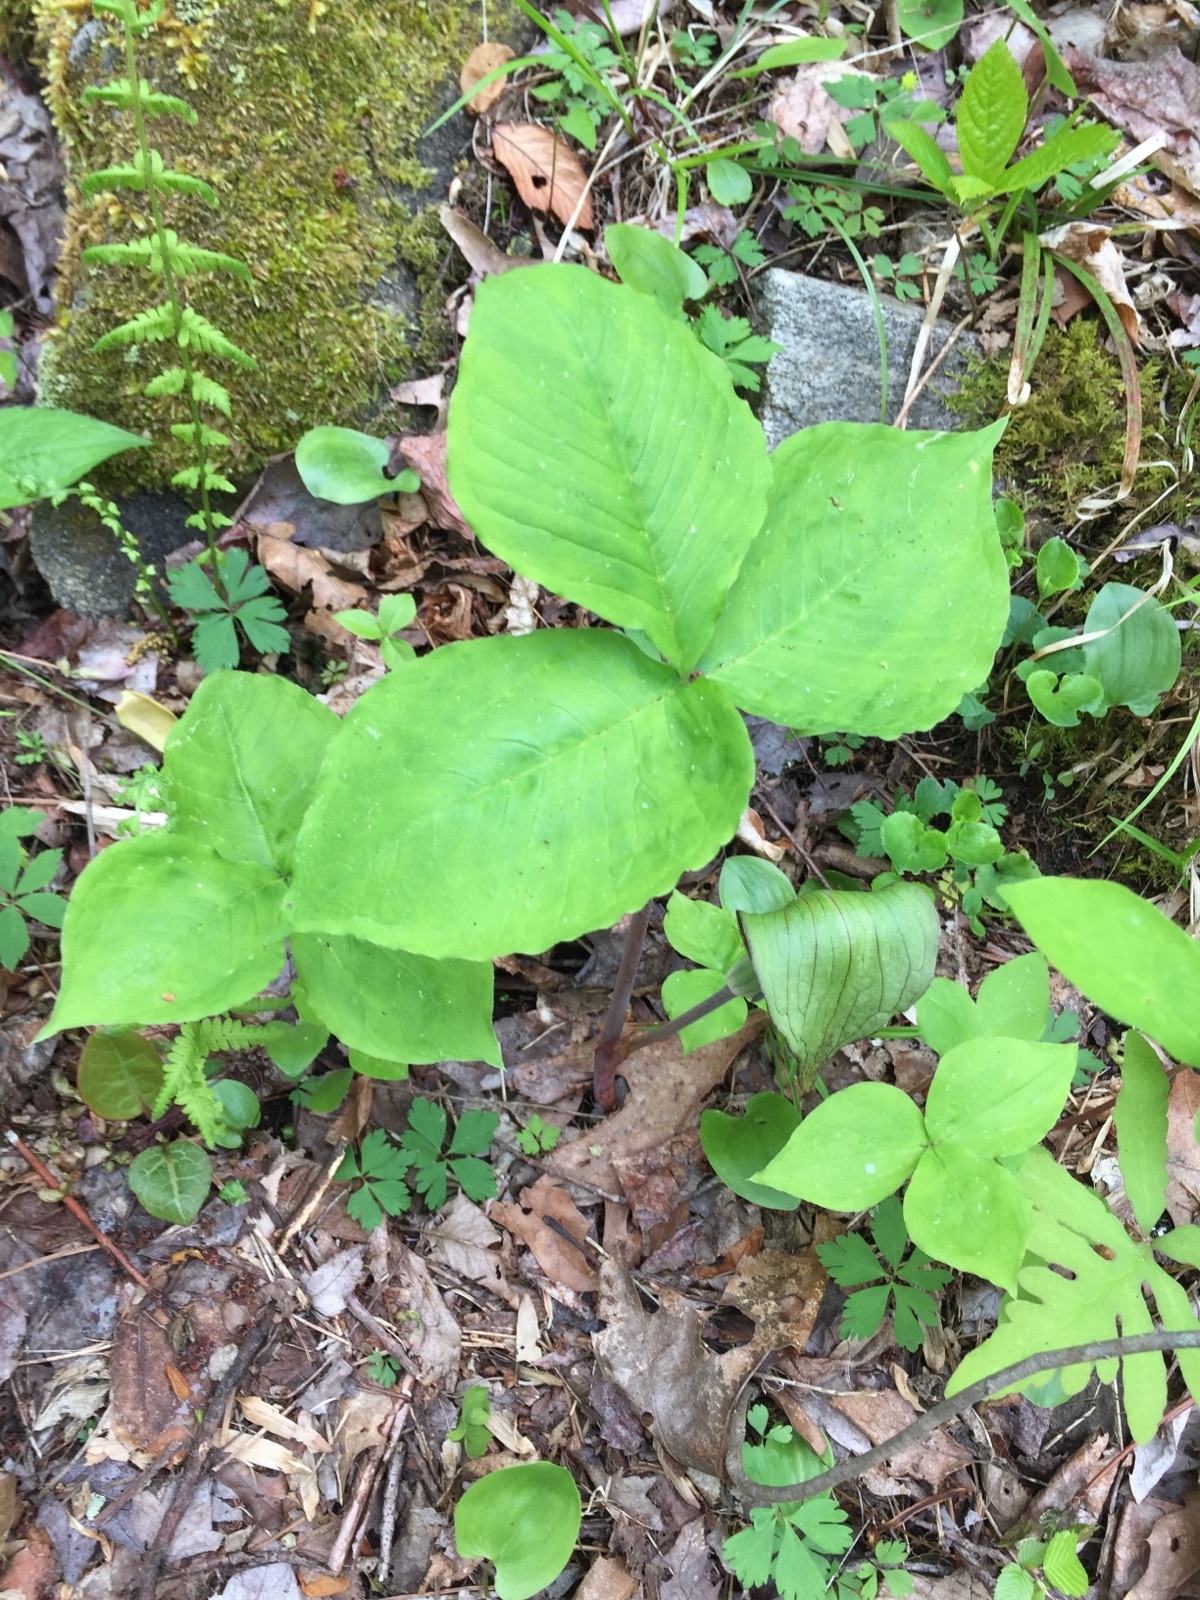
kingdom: Plantae
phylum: Tracheophyta
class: Liliopsida
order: Alismatales
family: Araceae
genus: Arisaema
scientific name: Arisaema triphyllum
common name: Jack-in-the-pulpit
